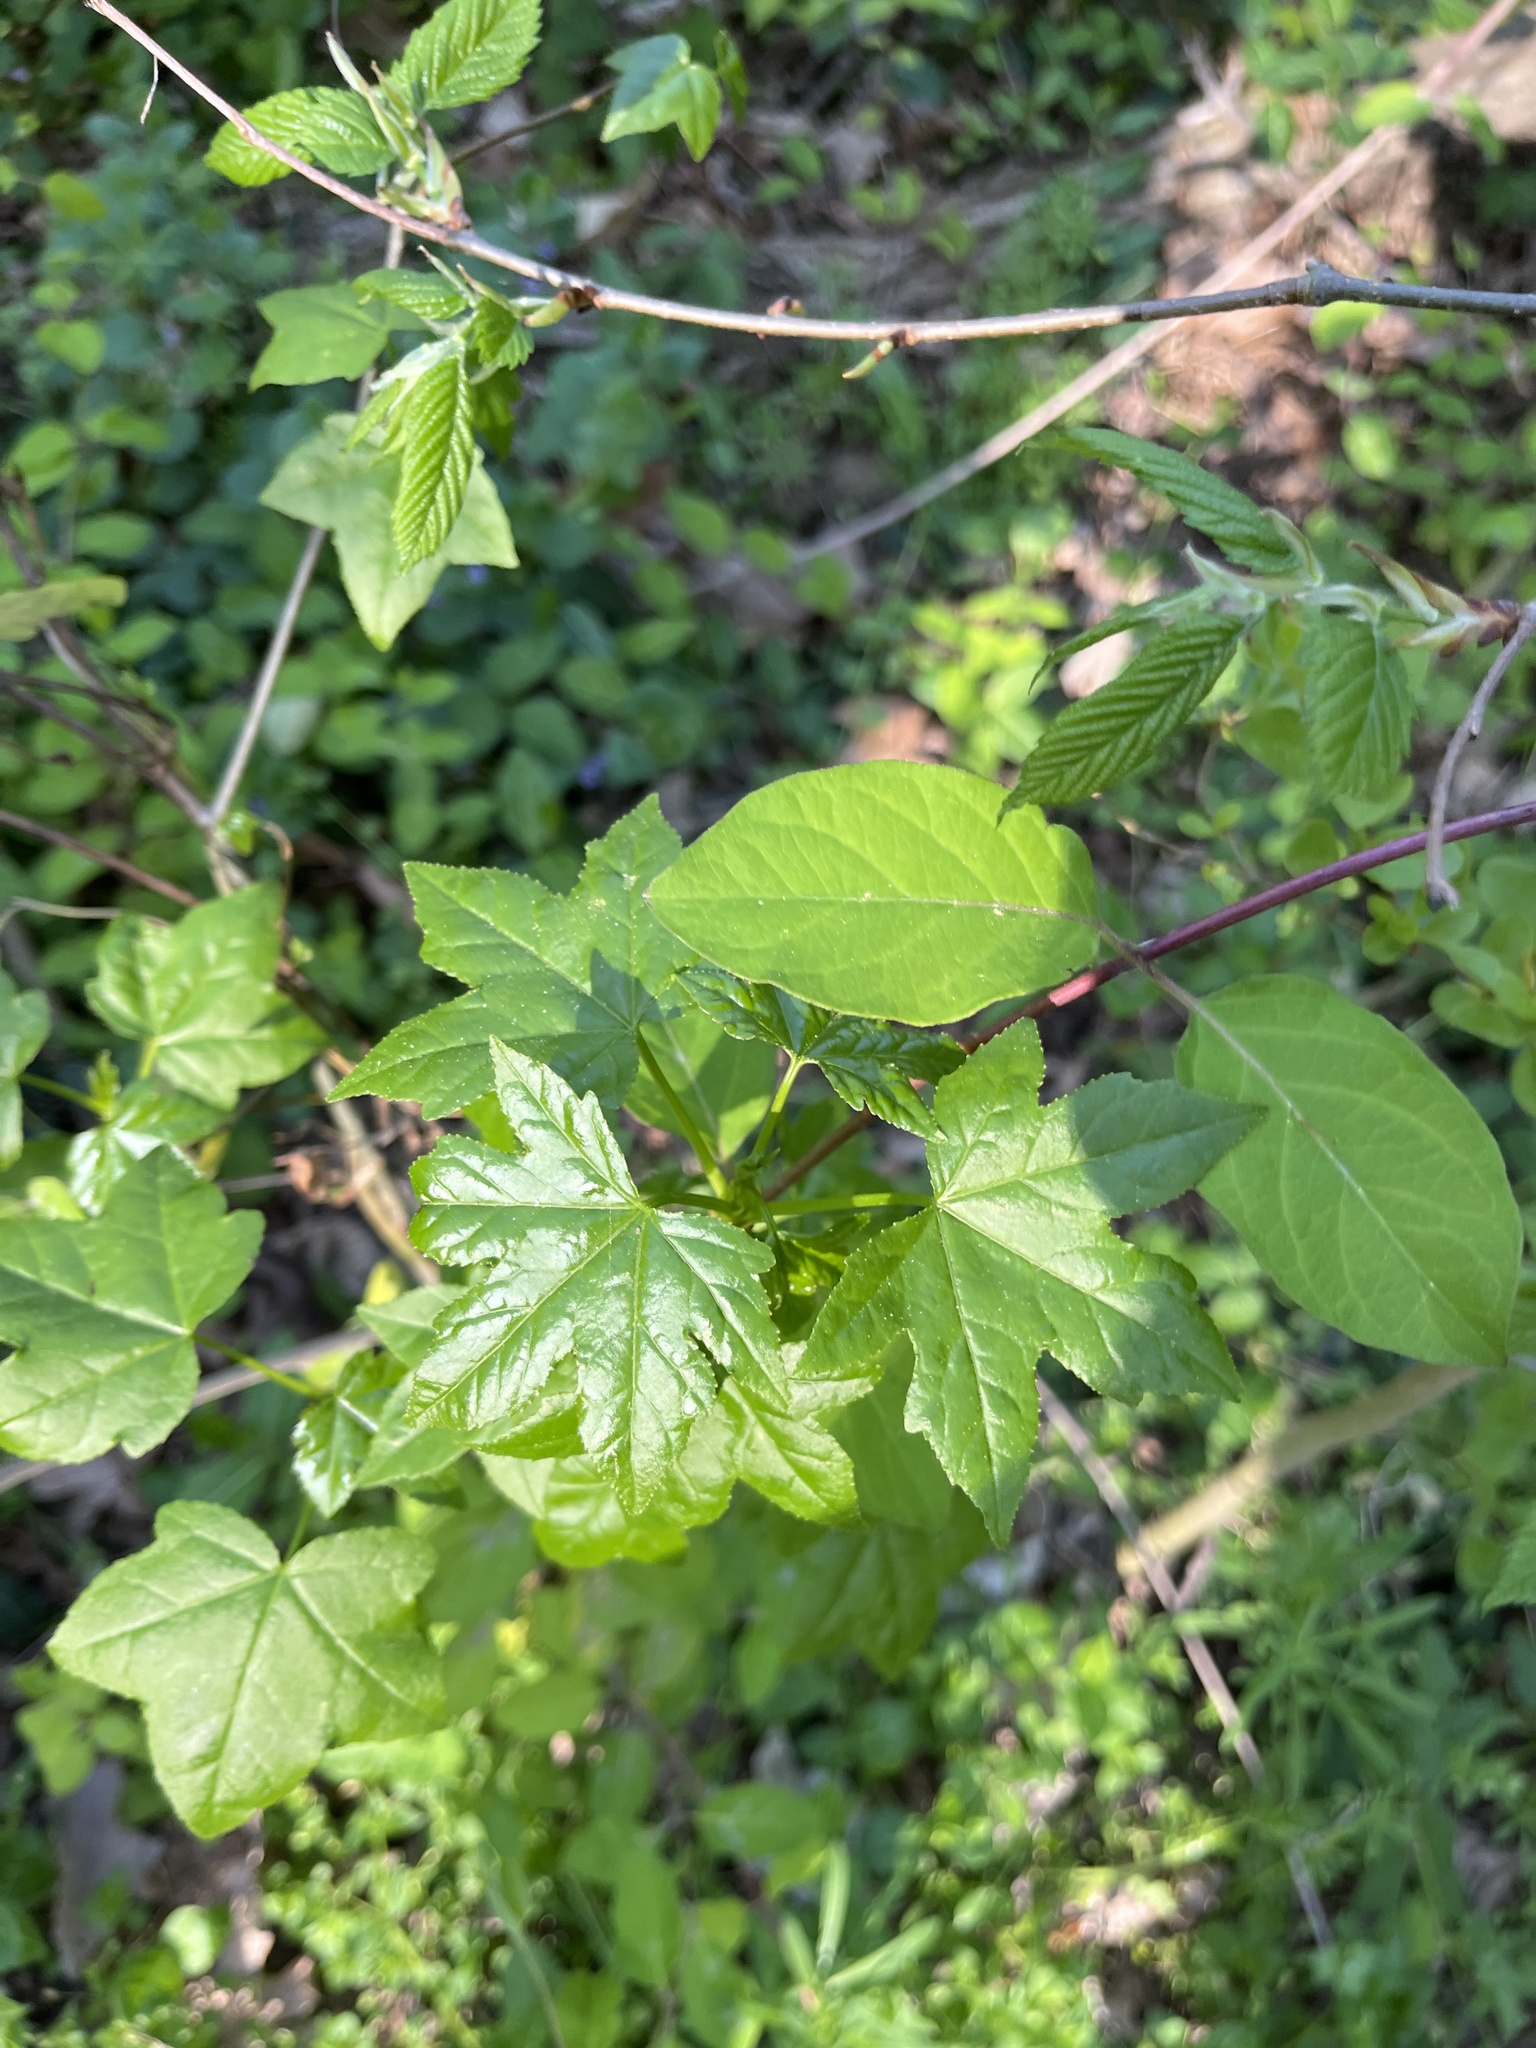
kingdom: Plantae
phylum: Tracheophyta
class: Magnoliopsida
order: Saxifragales
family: Altingiaceae
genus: Liquidambar
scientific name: Liquidambar styraciflua
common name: Sweet gum
